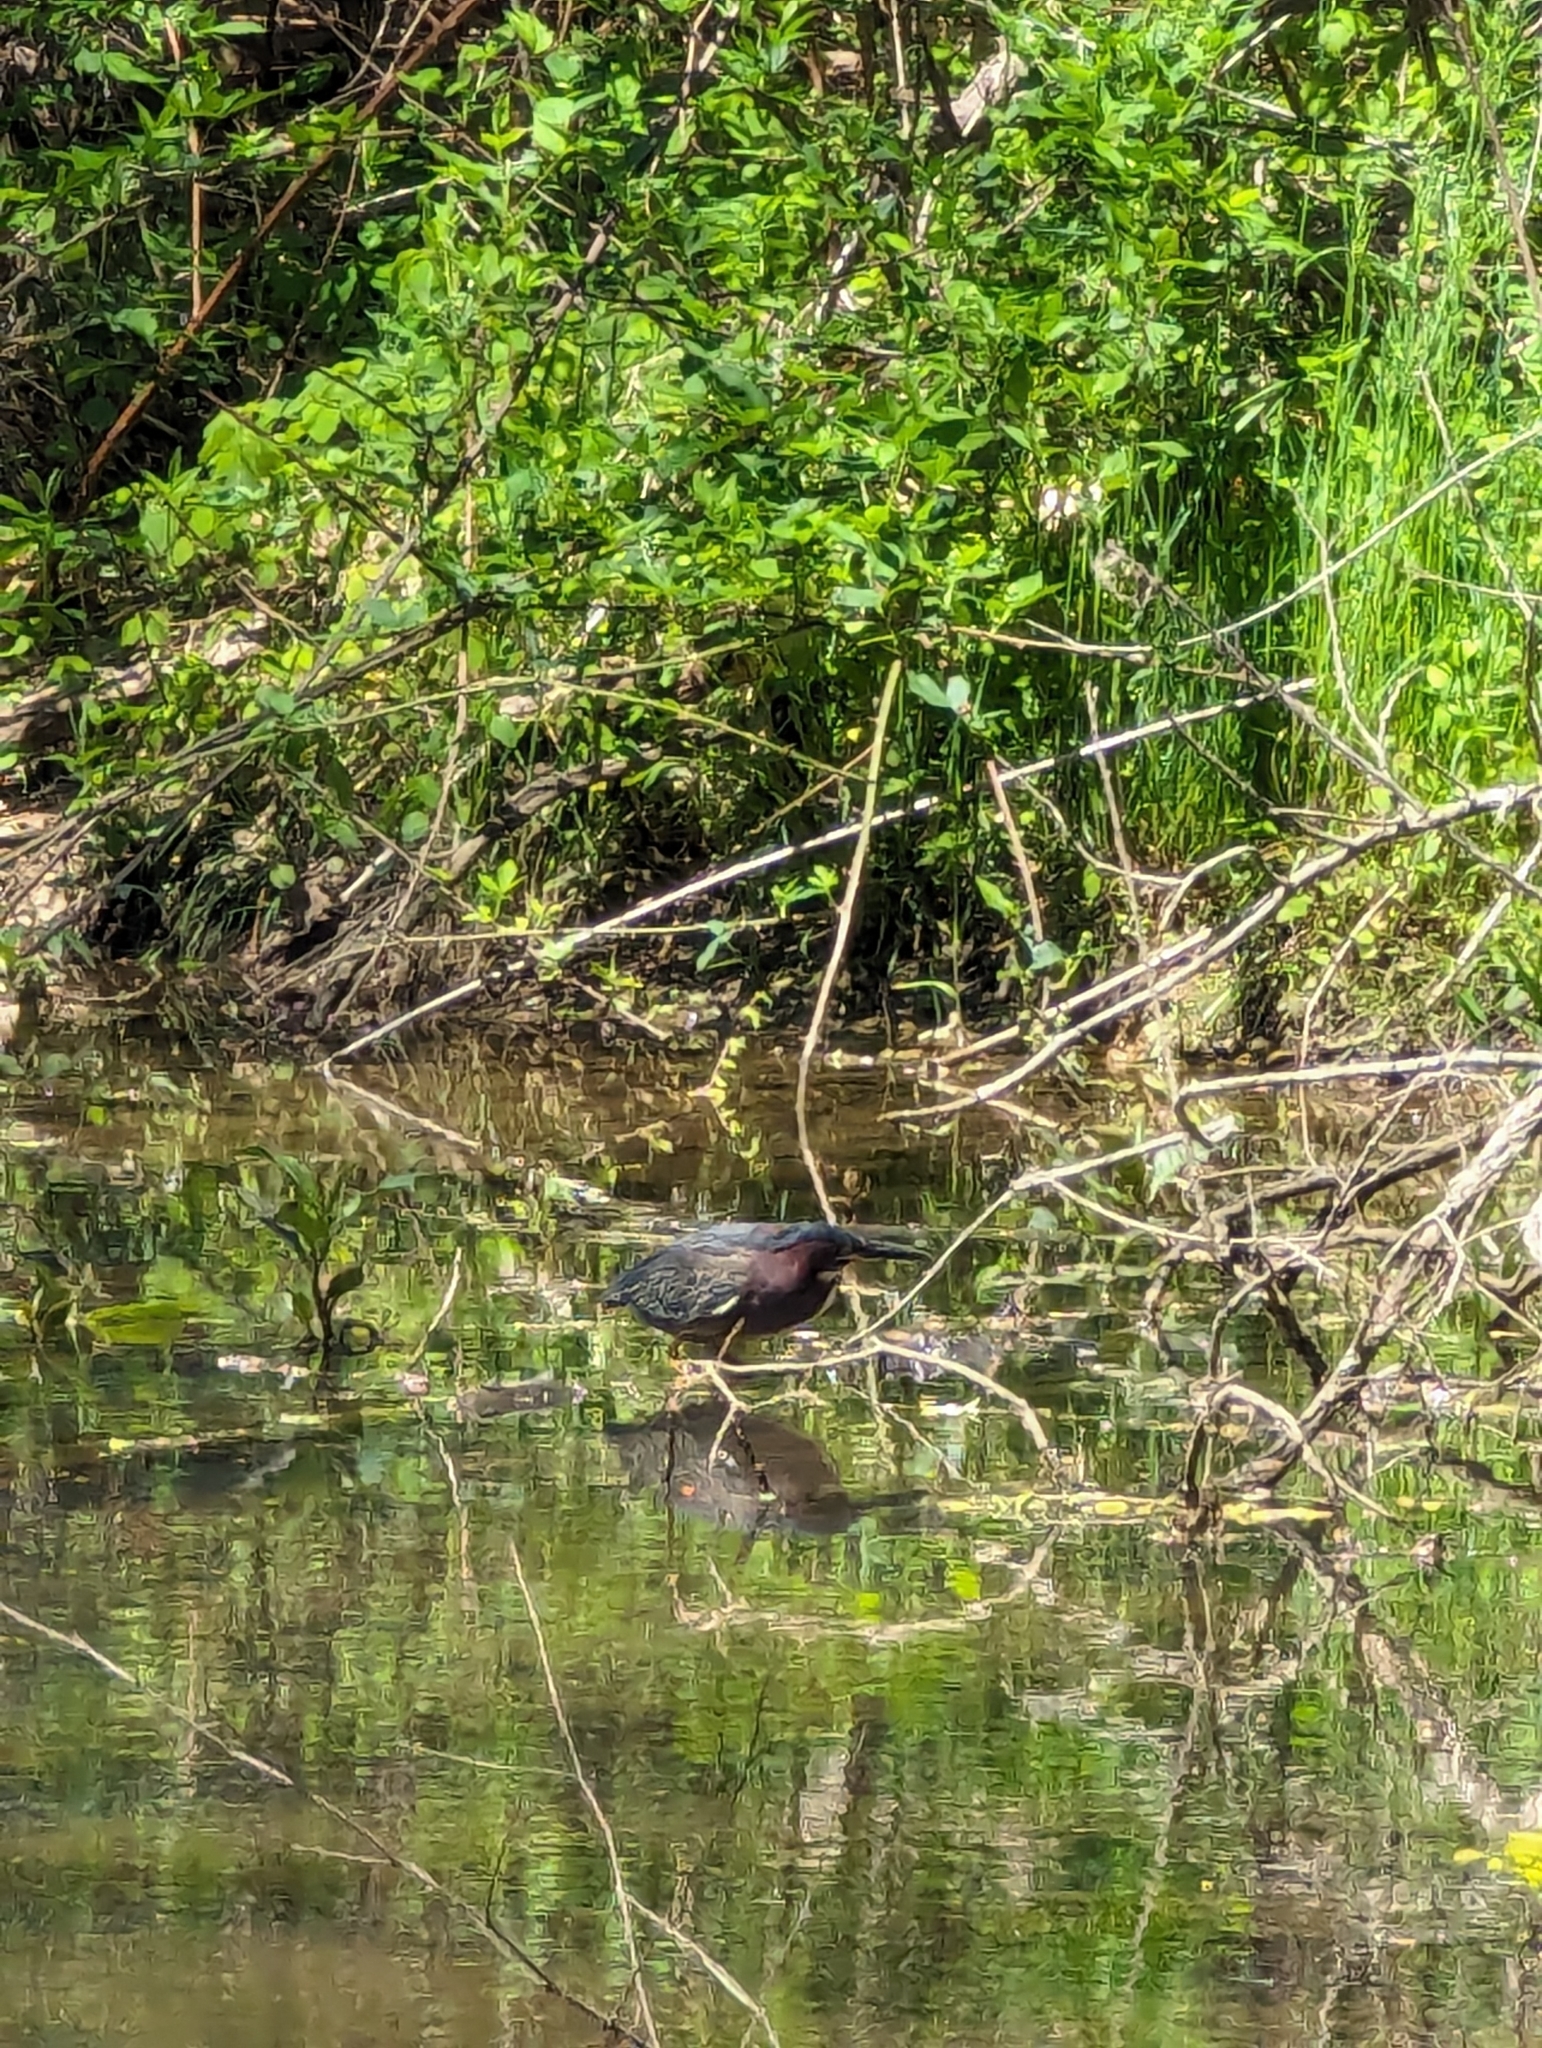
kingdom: Animalia
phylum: Chordata
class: Aves
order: Pelecaniformes
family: Ardeidae
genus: Butorides
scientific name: Butorides virescens
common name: Green heron
